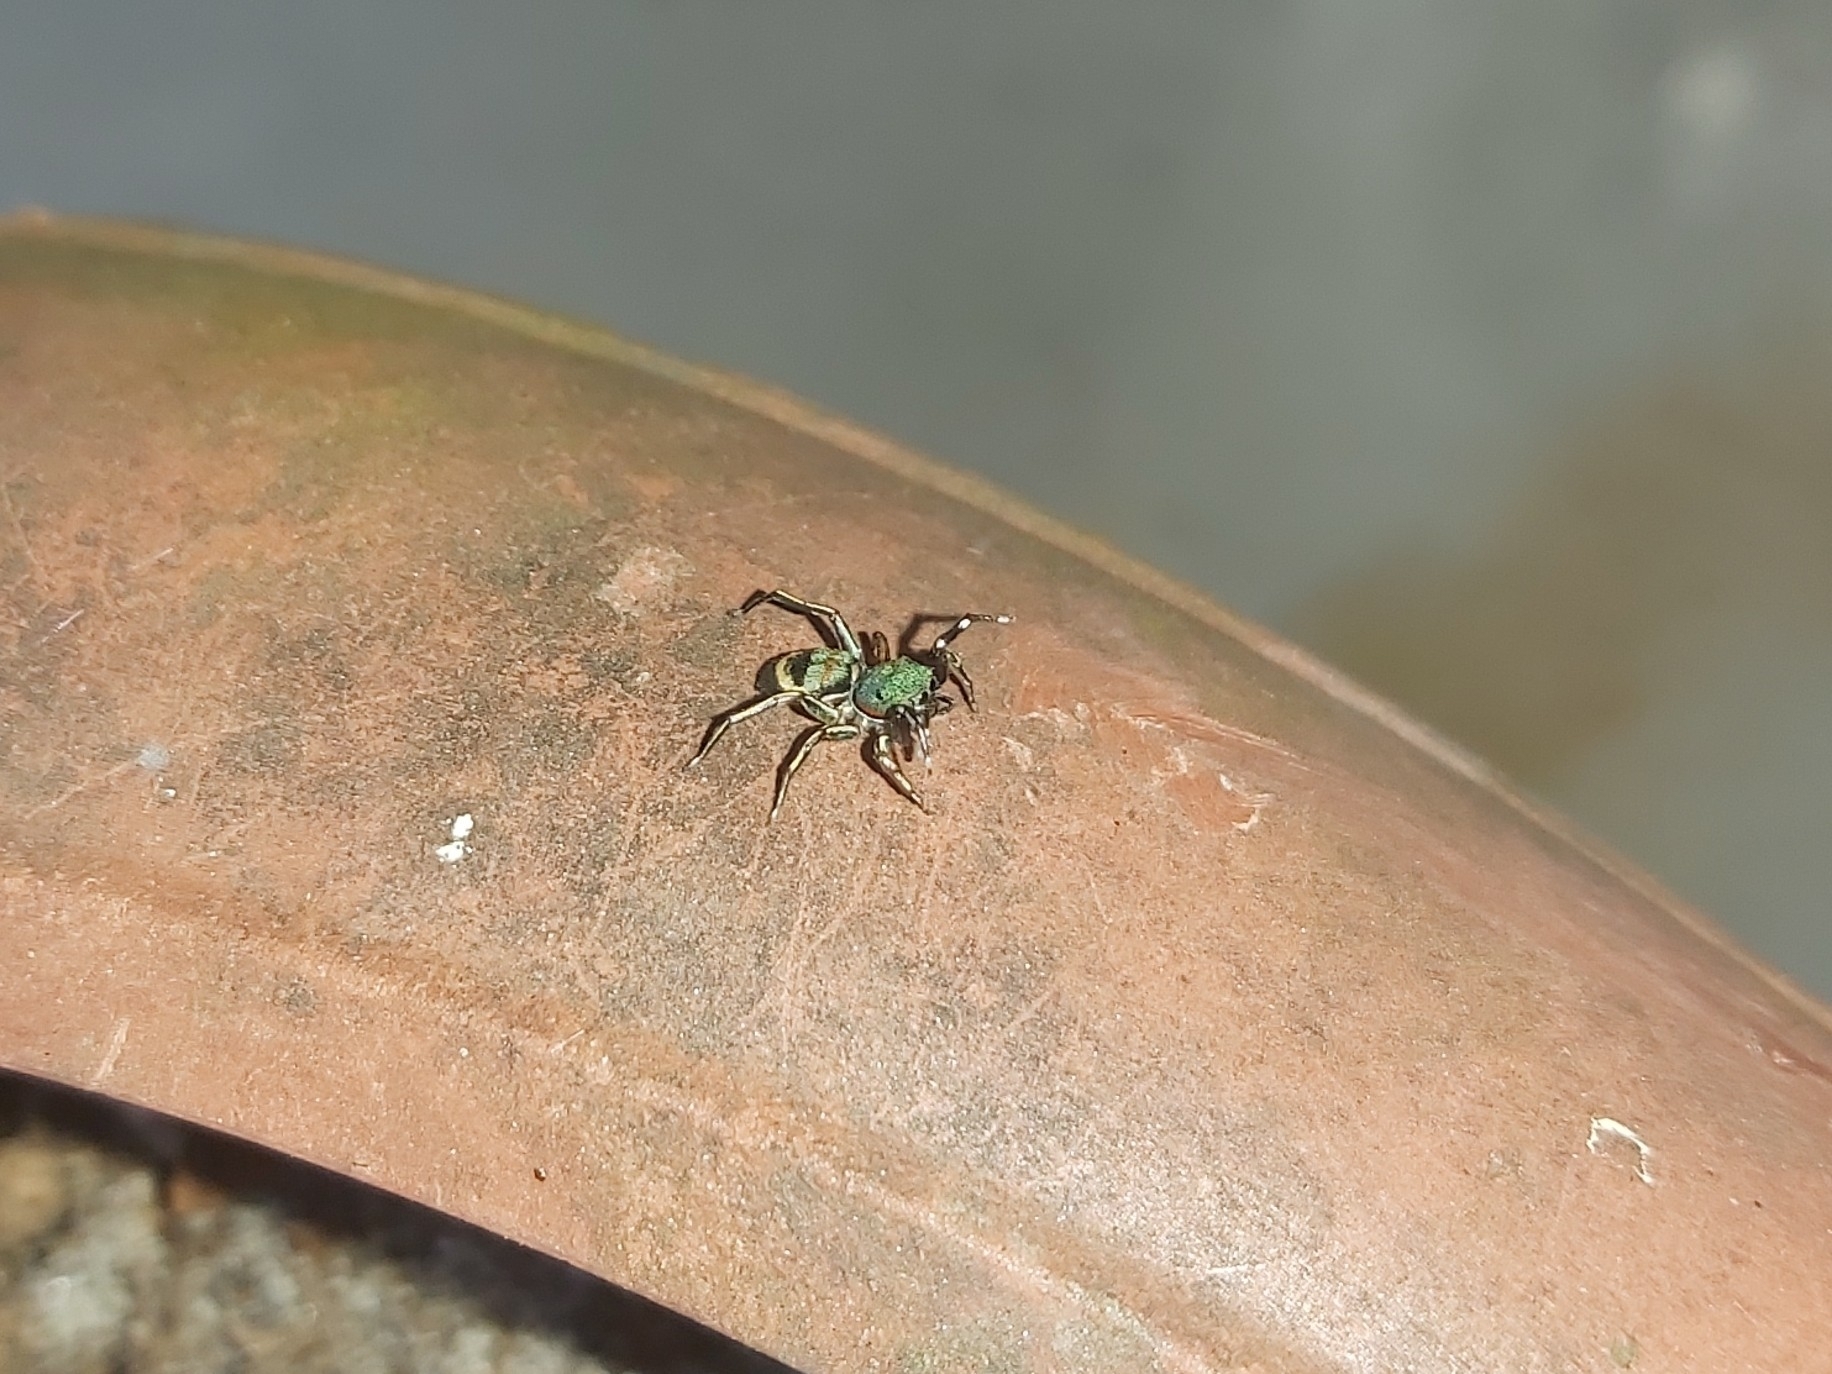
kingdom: Animalia
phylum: Arthropoda
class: Arachnida
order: Araneae
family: Salticidae
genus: Siler
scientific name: Siler semiglaucus
